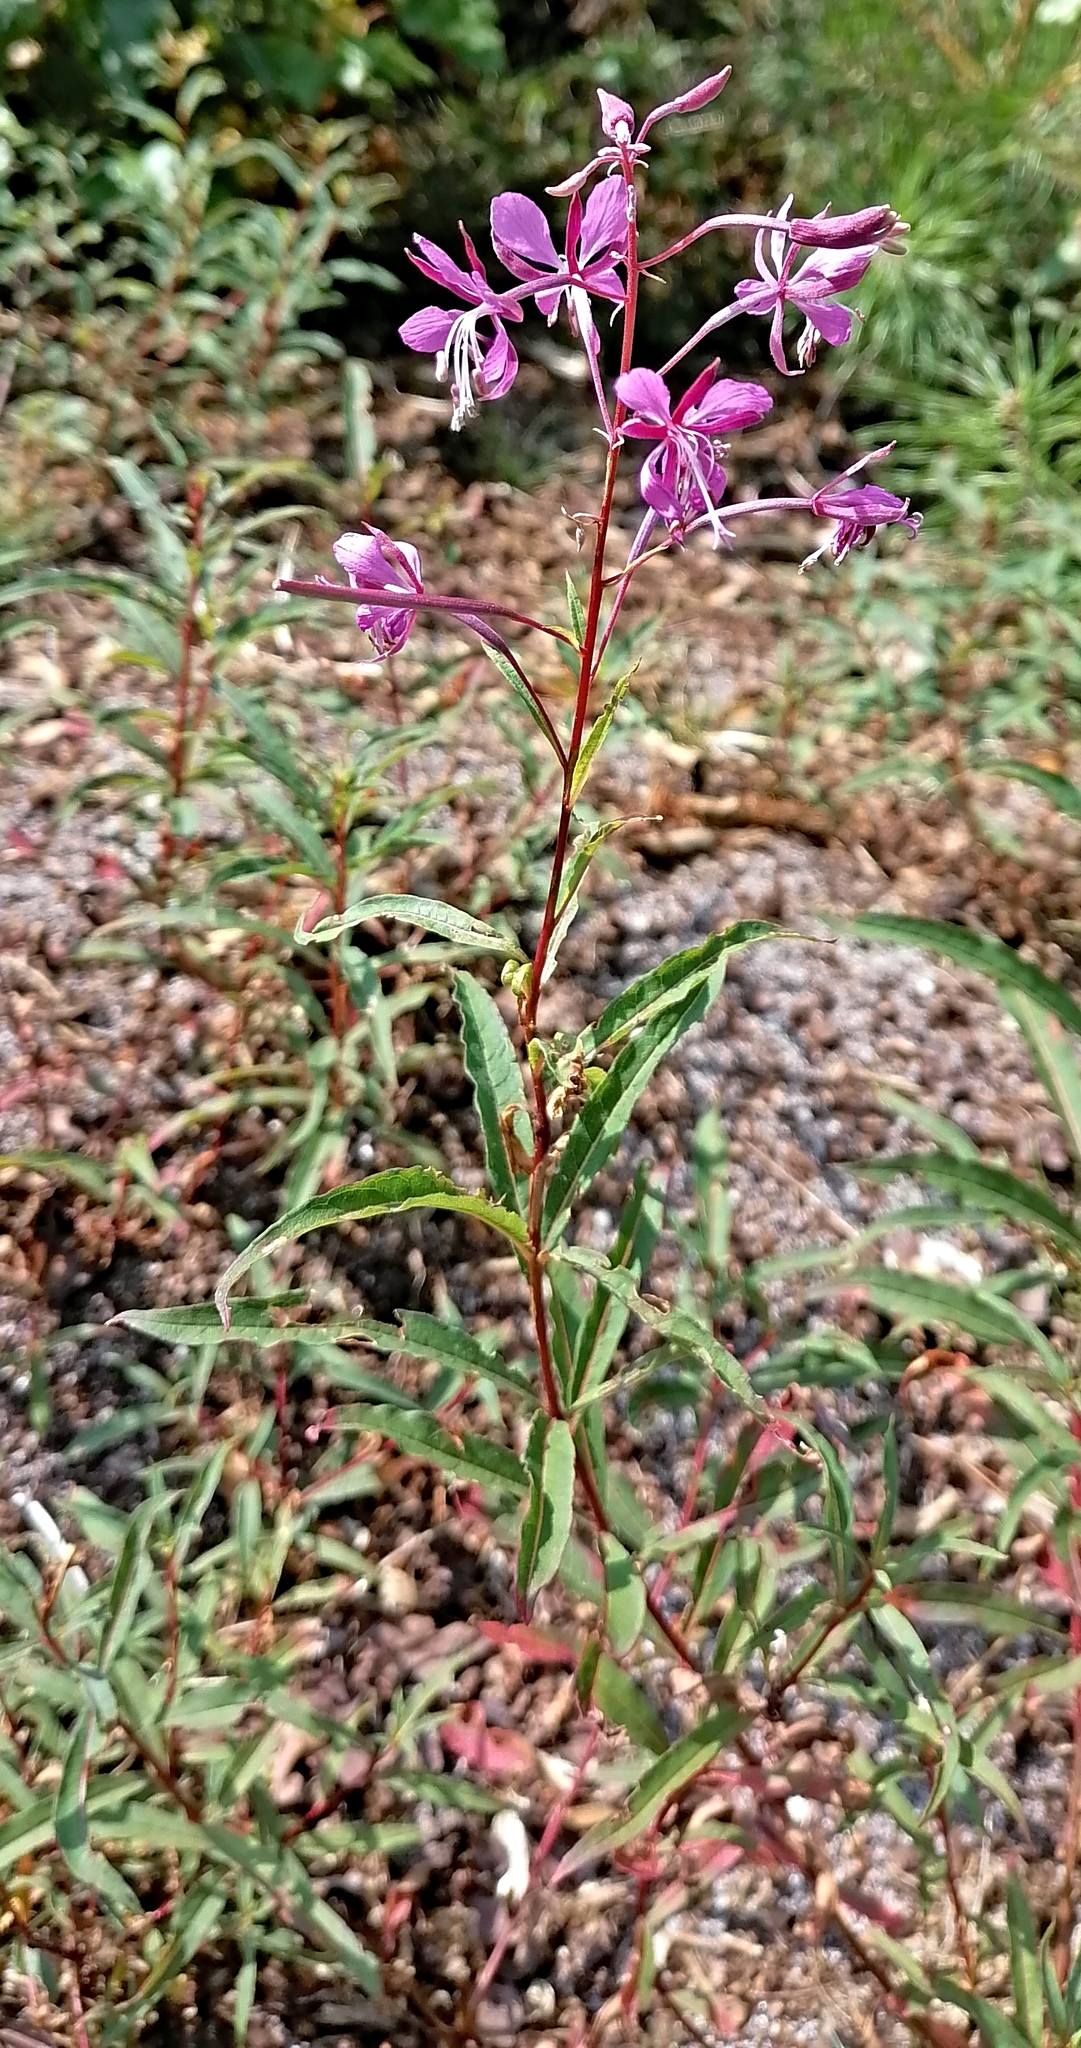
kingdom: Plantae
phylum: Tracheophyta
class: Magnoliopsida
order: Myrtales
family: Onagraceae
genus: Chamaenerion
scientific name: Chamaenerion angustifolium
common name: Fireweed
